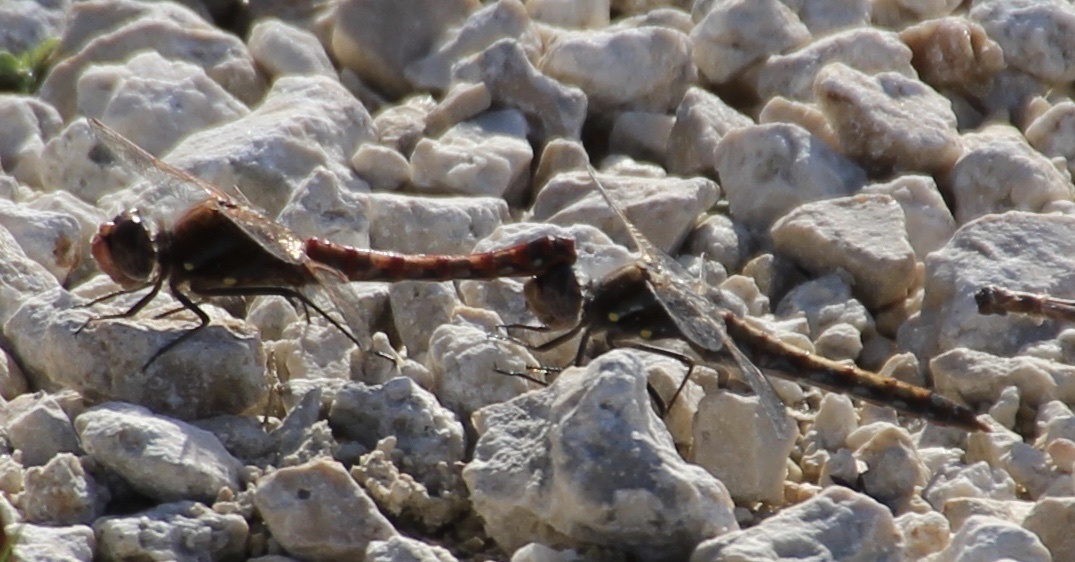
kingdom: Animalia
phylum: Arthropoda
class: Insecta
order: Odonata
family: Libellulidae
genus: Sympetrum
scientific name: Sympetrum corruptum
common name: Variegated meadowhawk
